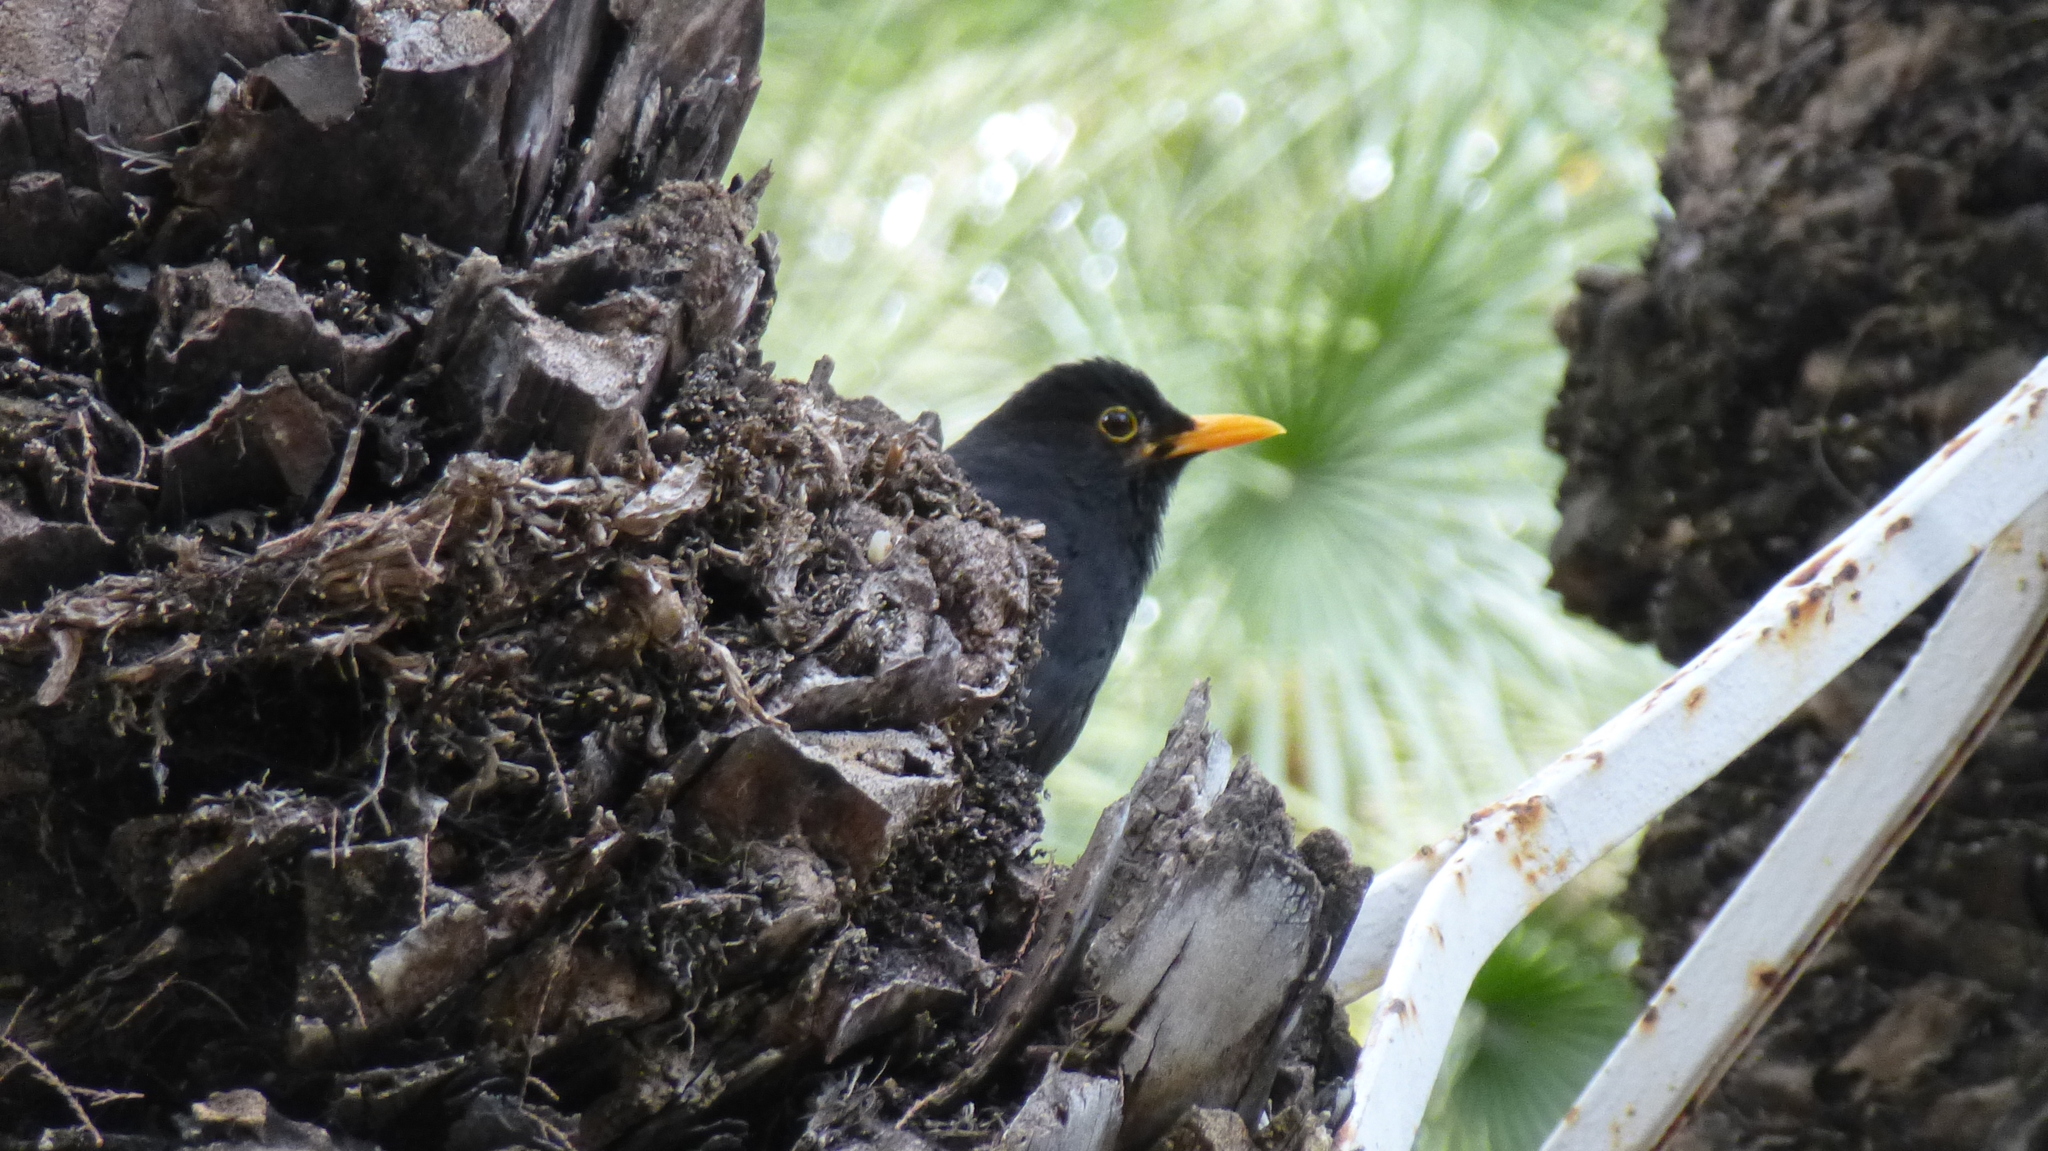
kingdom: Animalia
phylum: Chordata
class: Aves
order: Passeriformes
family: Turdidae
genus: Turdus
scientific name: Turdus merula
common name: Common blackbird
